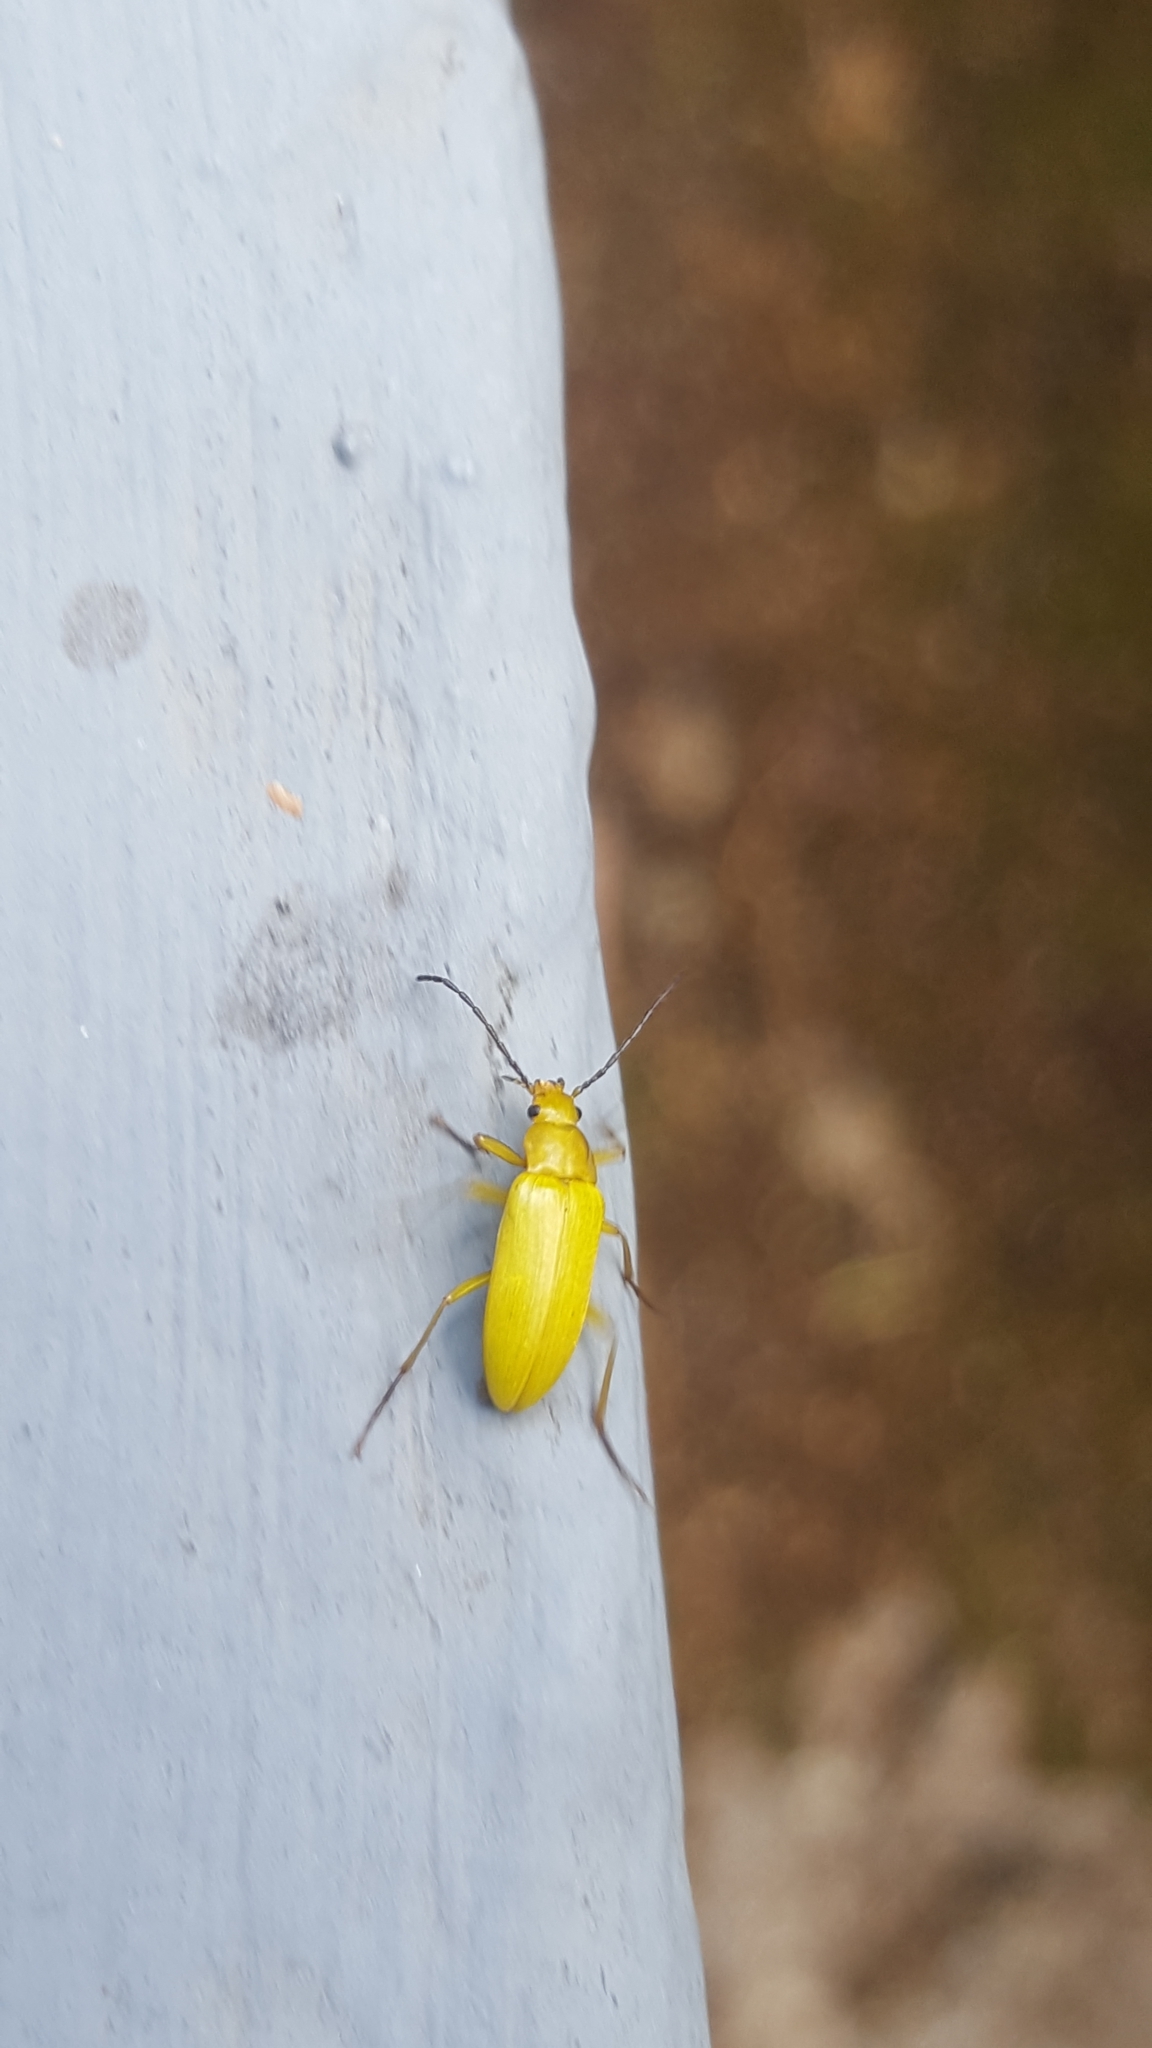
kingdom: Animalia
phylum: Arthropoda
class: Insecta
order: Coleoptera
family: Tenebrionidae
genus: Cteniopus
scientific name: Cteniopus sulphureus
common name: Sulphur beetle
